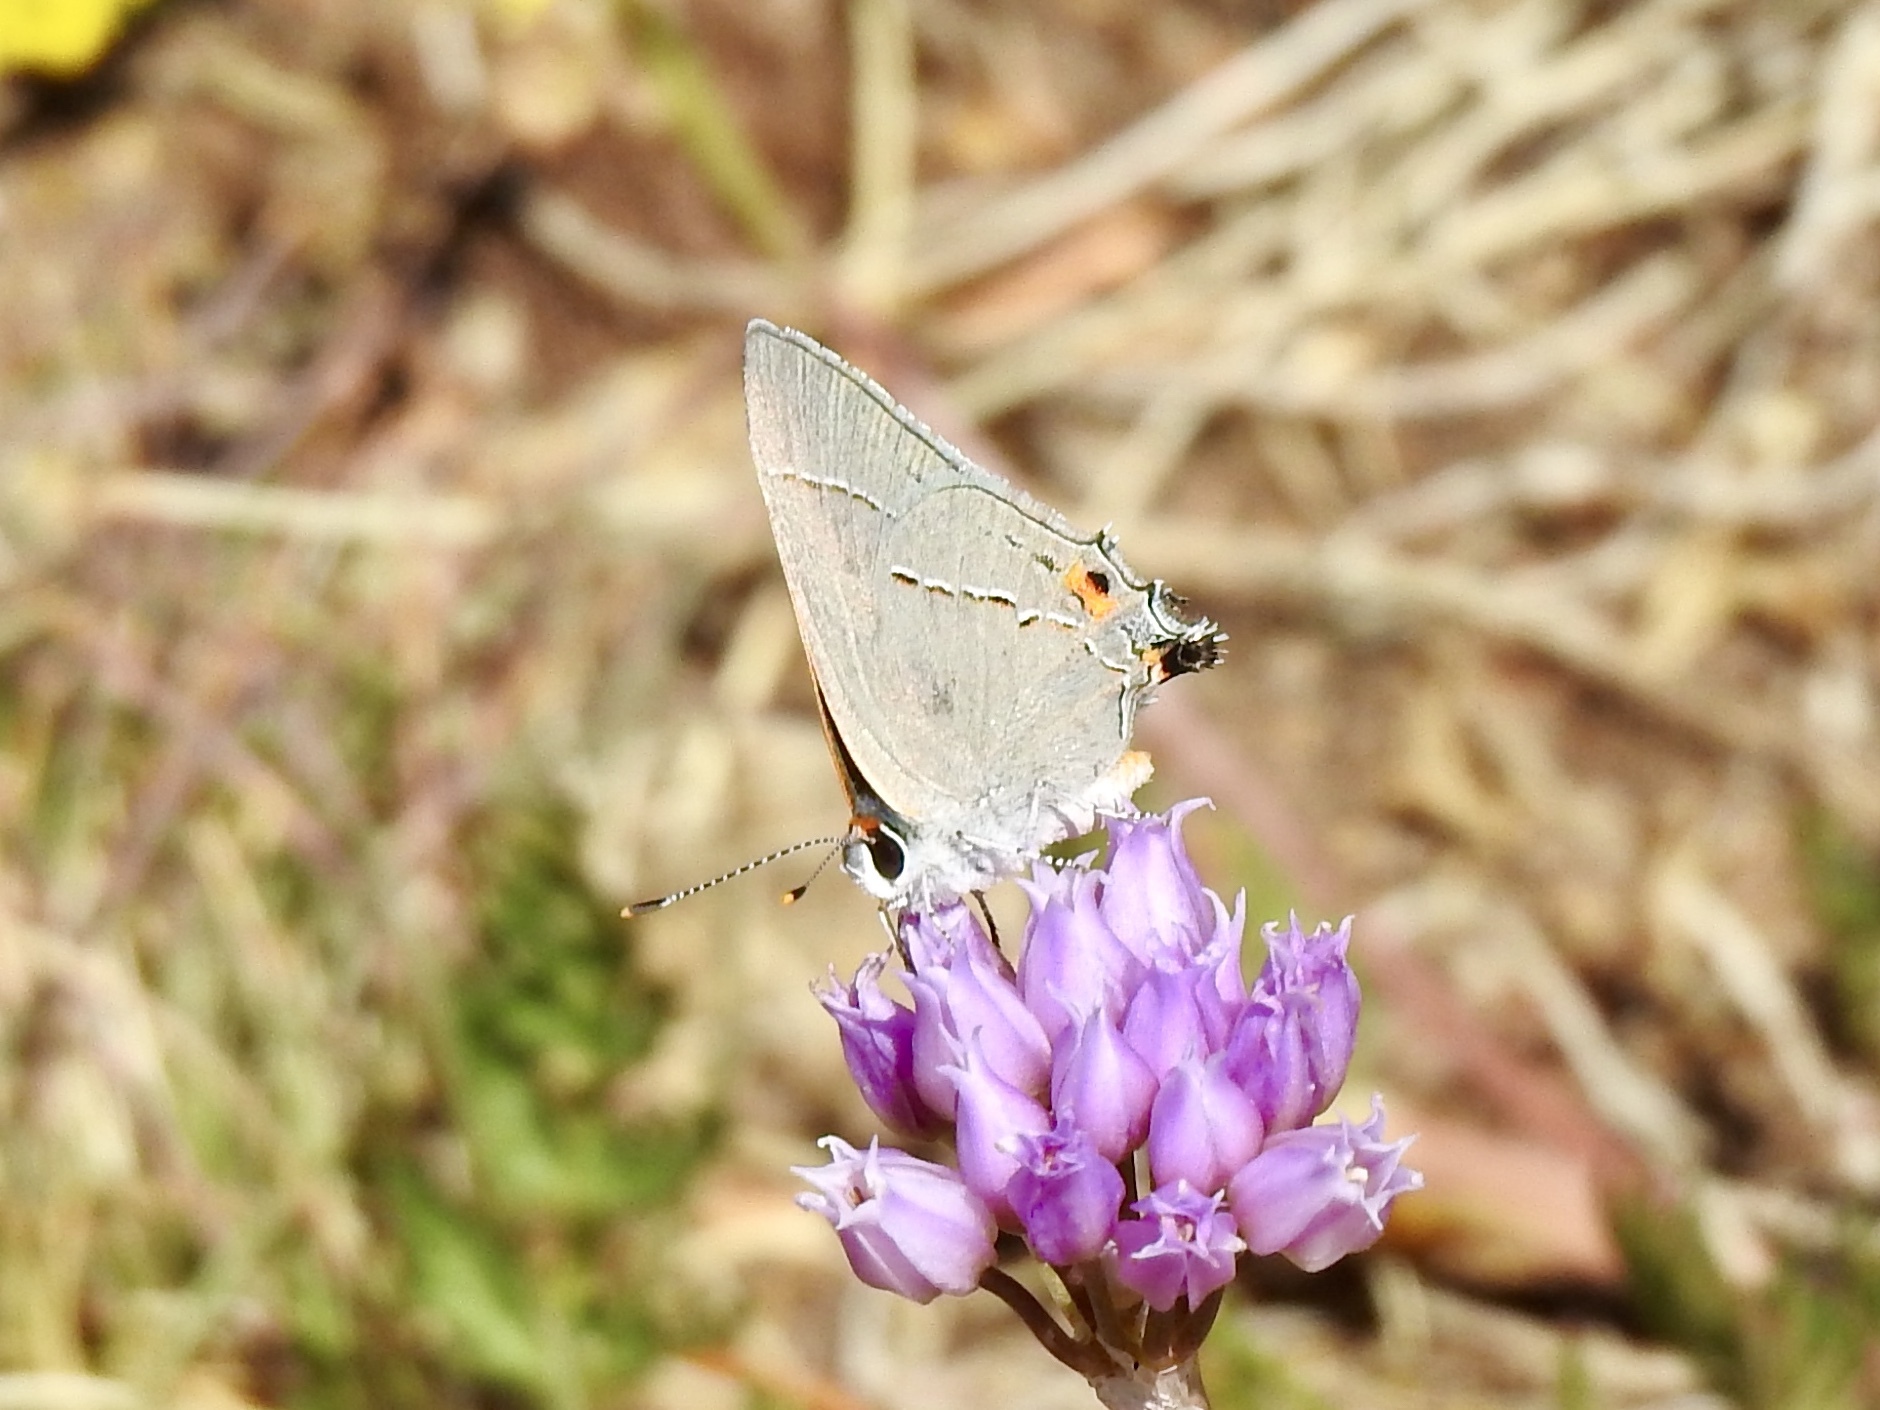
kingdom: Animalia
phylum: Arthropoda
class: Insecta
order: Lepidoptera
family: Lycaenidae
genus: Strymon
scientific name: Strymon melinus
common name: Gray hairstreak
